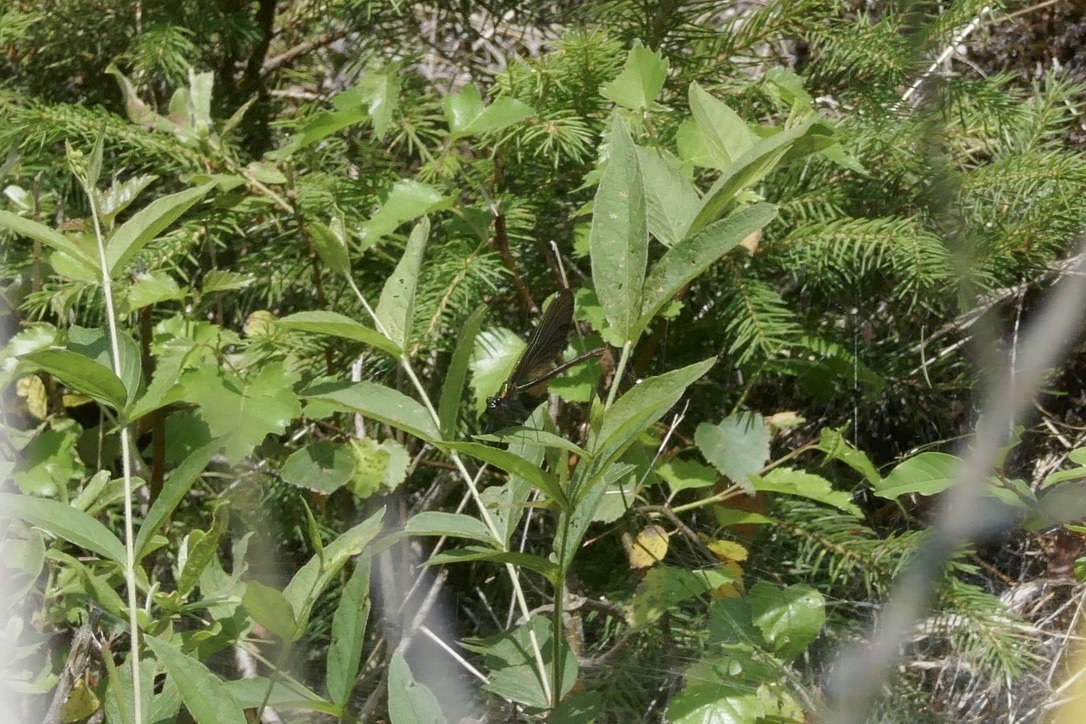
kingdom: Animalia
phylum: Arthropoda
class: Insecta
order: Odonata
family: Calopterygidae
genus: Calopteryx
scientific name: Calopteryx virgo
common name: Beautiful demoiselle
